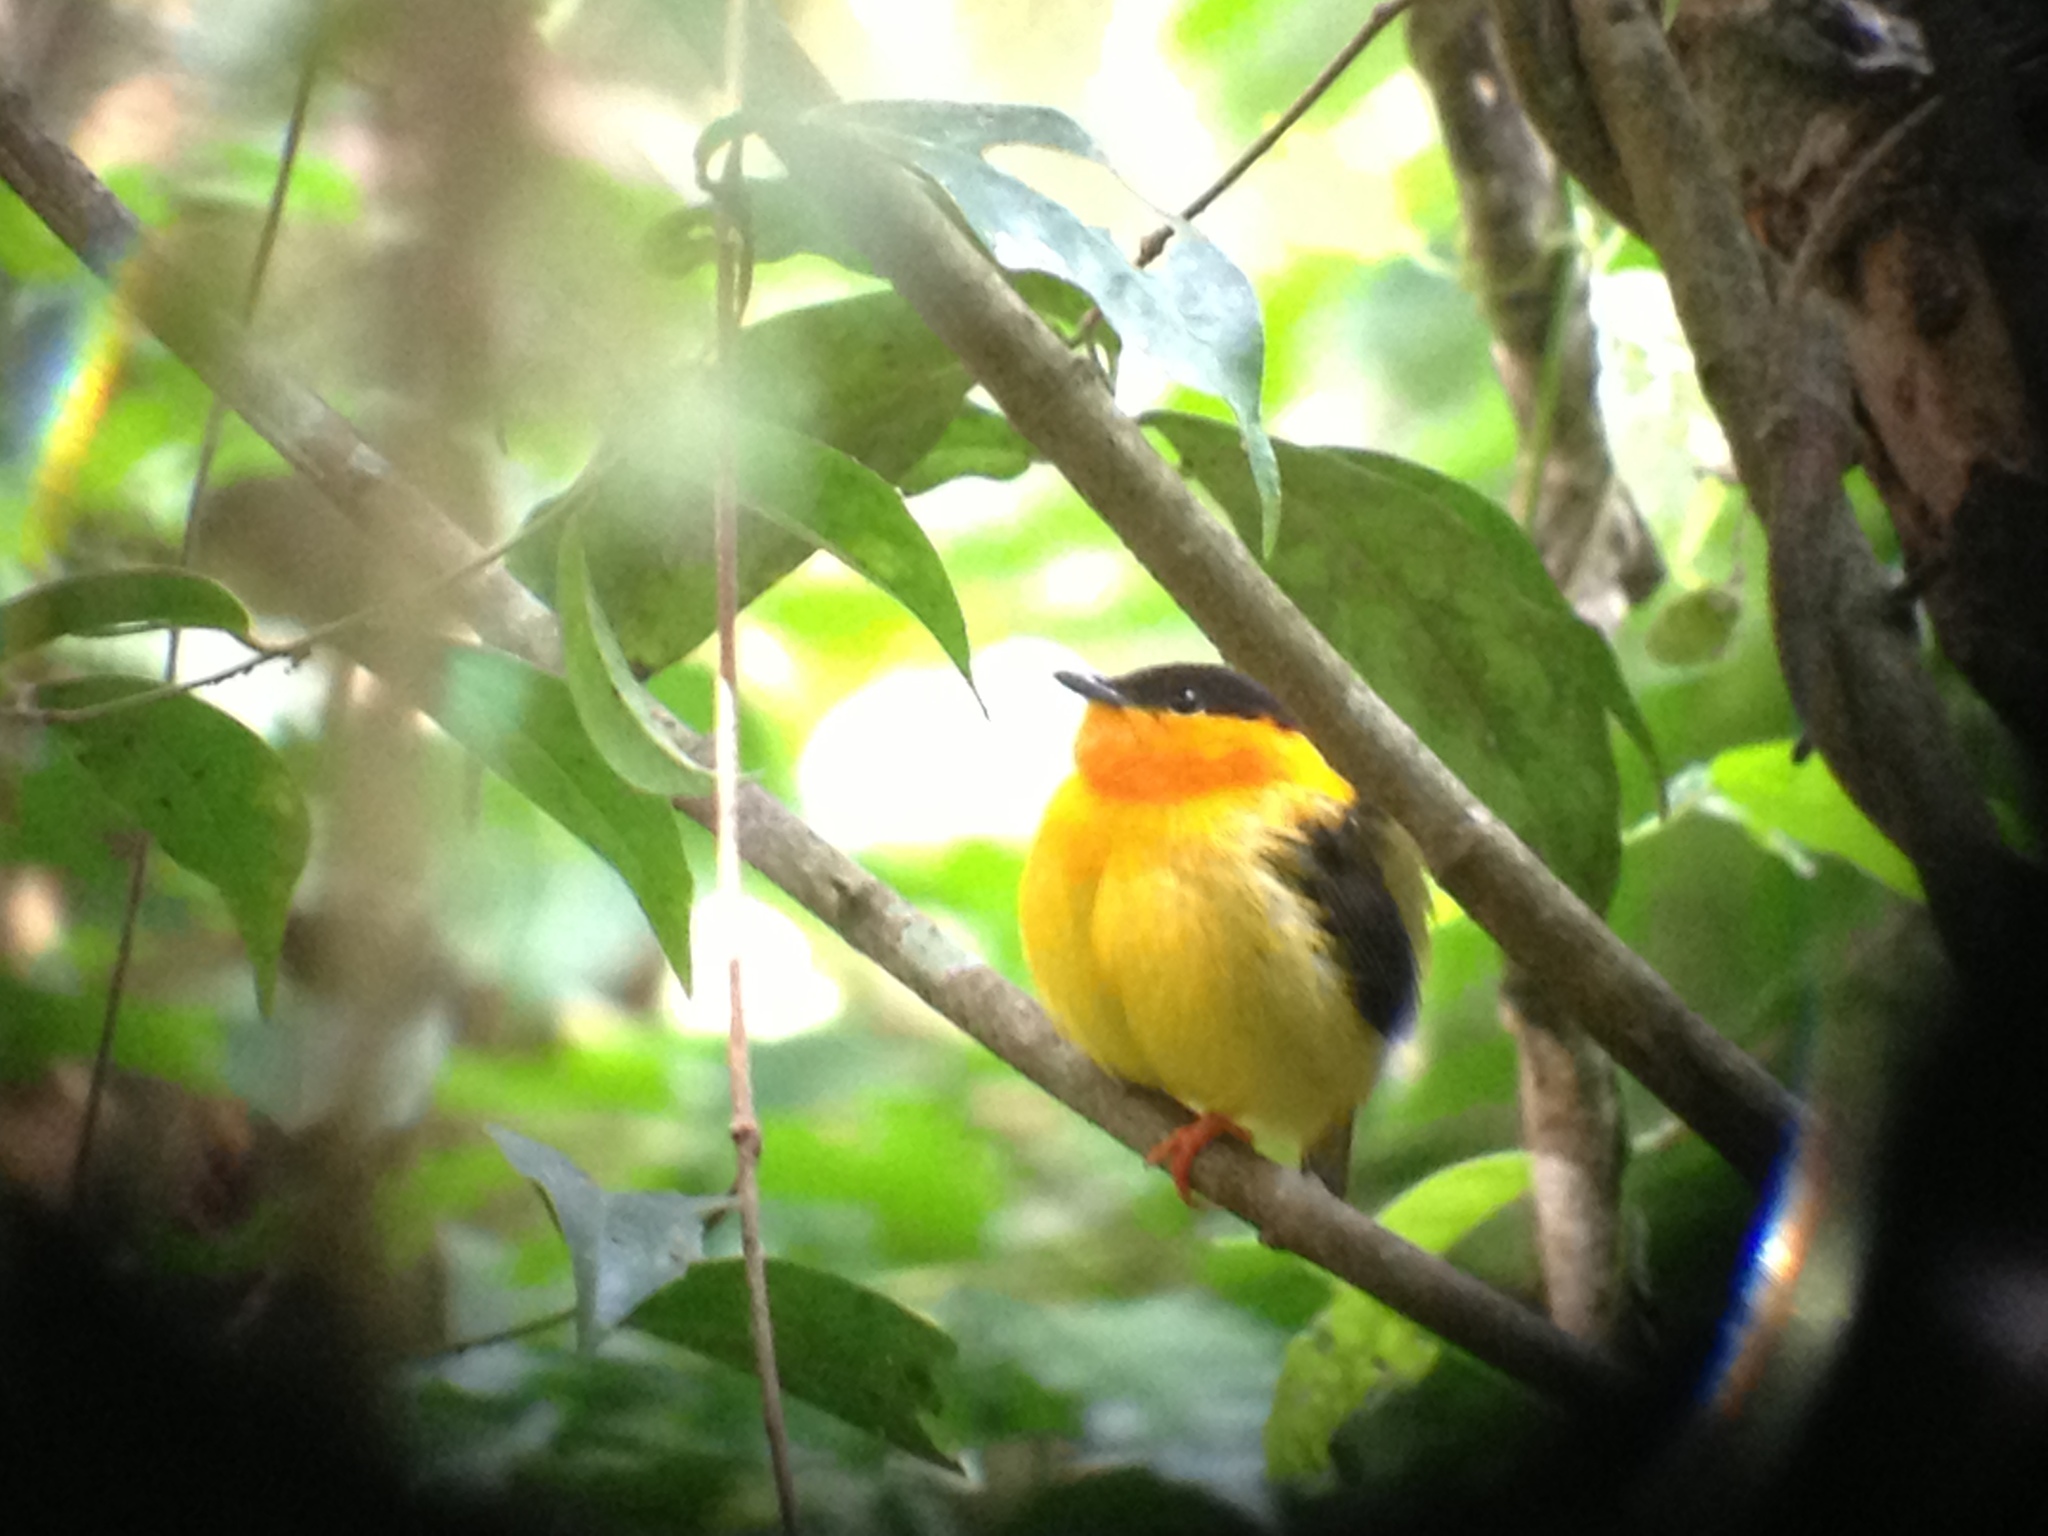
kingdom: Animalia
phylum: Chordata
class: Aves
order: Passeriformes
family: Pipridae
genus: Manacus
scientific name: Manacus aurantiacus
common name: Orange-collared manakin
